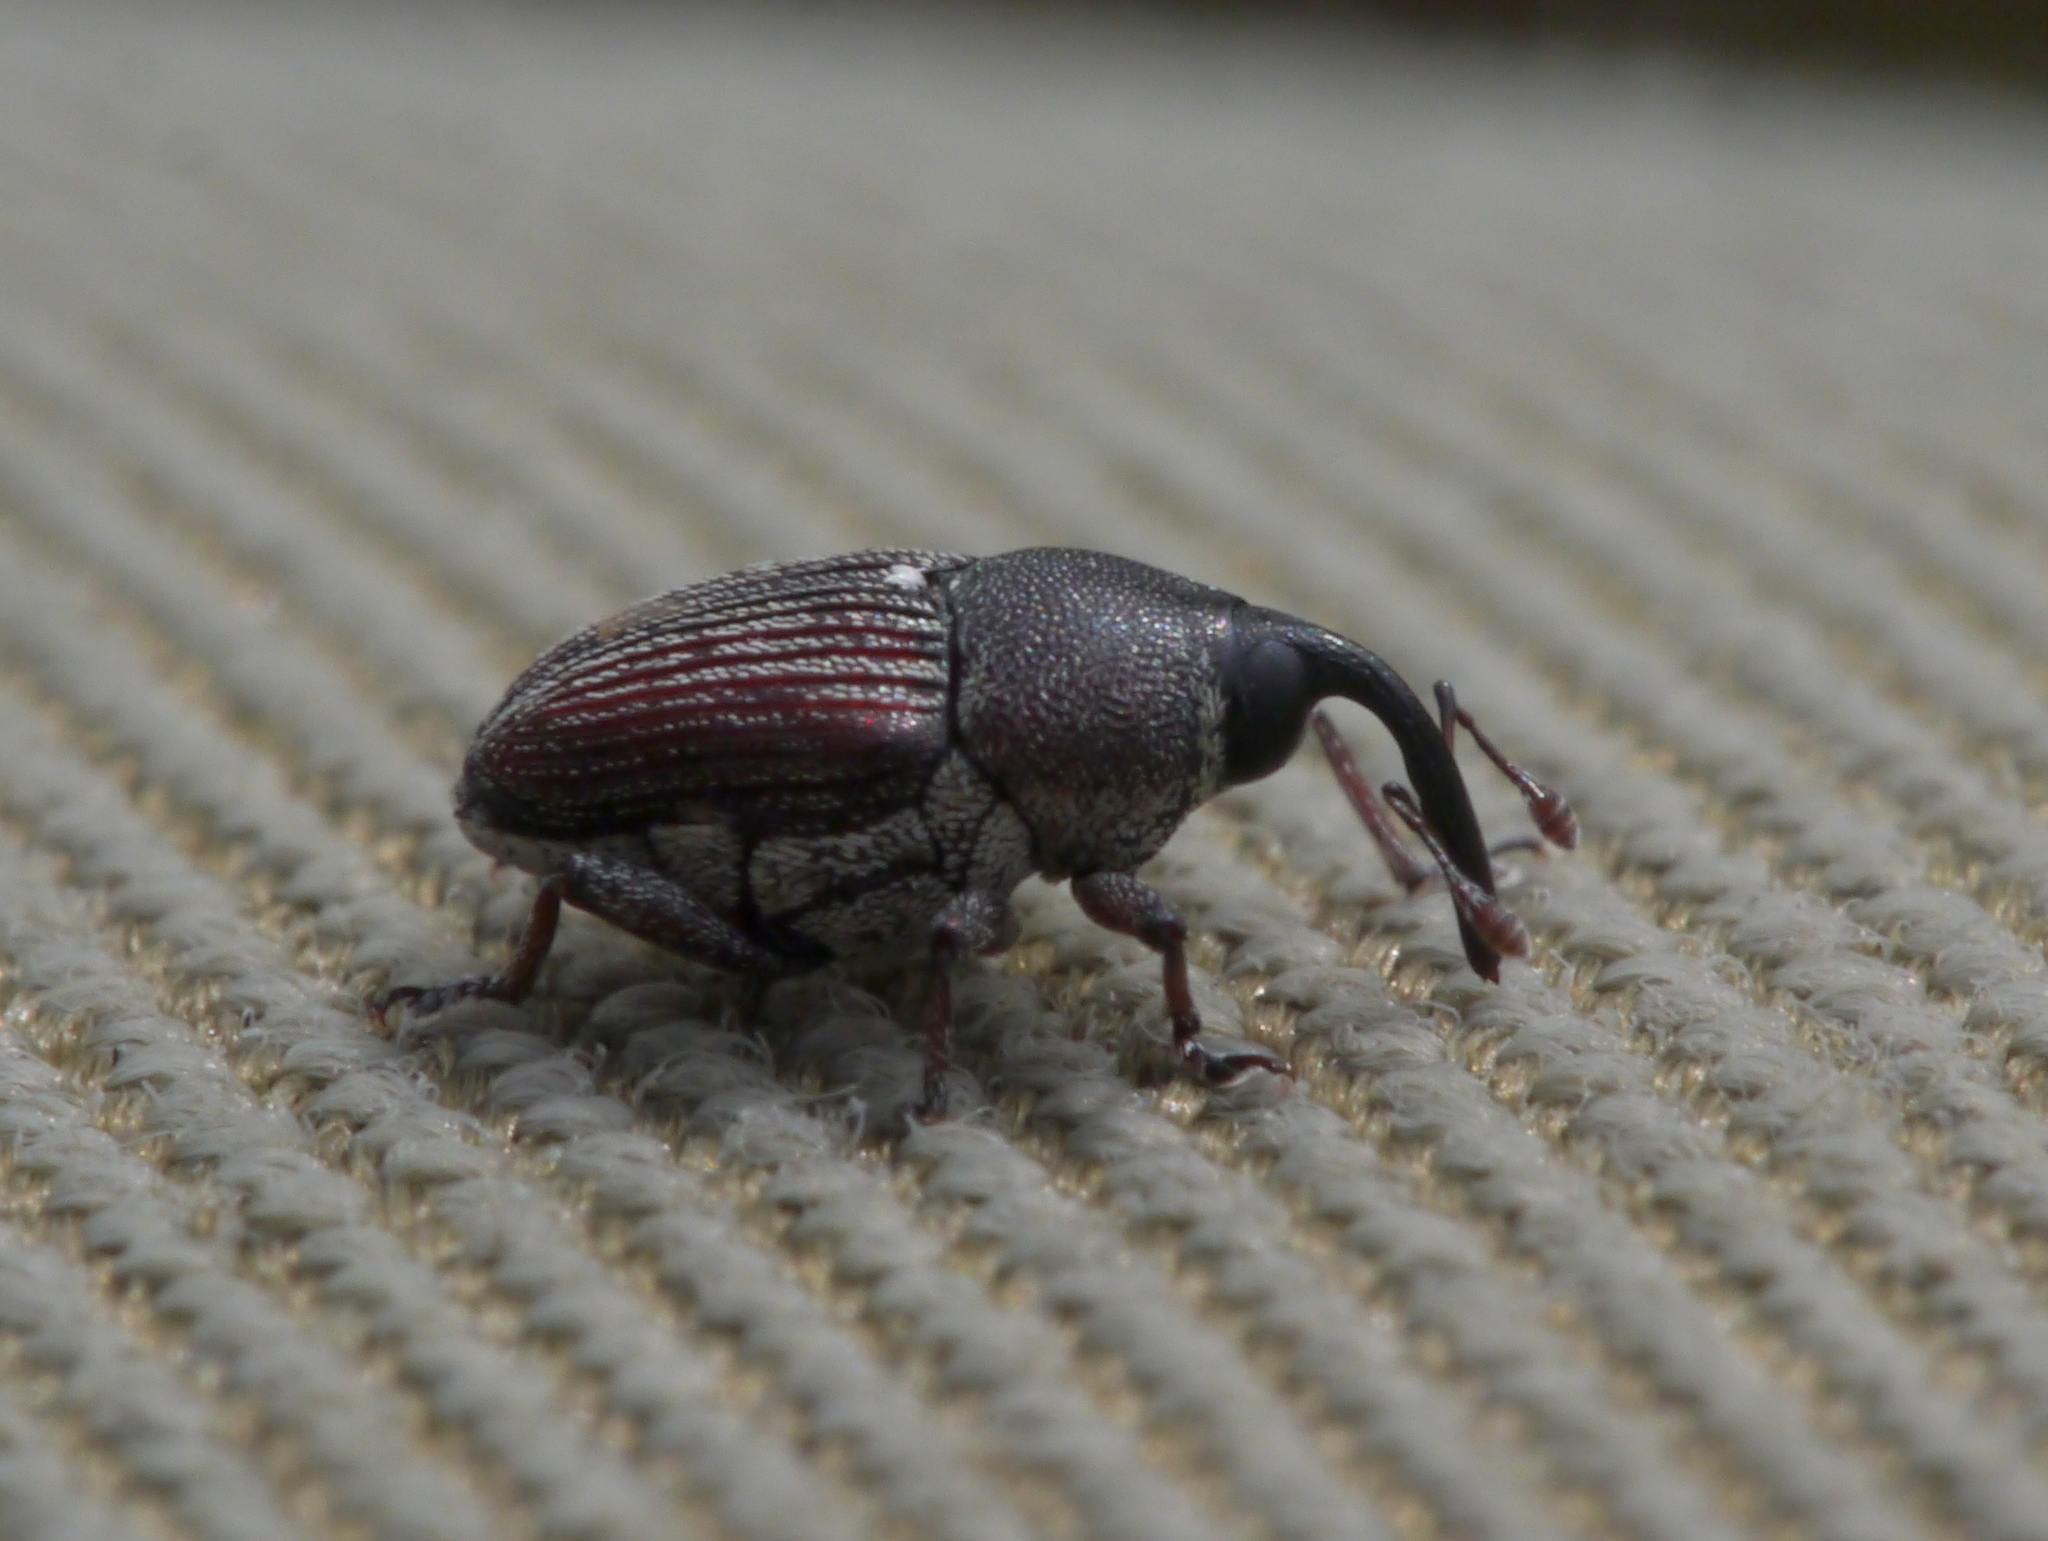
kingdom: Animalia
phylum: Arthropoda
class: Insecta
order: Coleoptera
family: Curculionidae
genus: Odontocorynus
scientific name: Odontocorynus umbellae
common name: Daisy flower weevil
